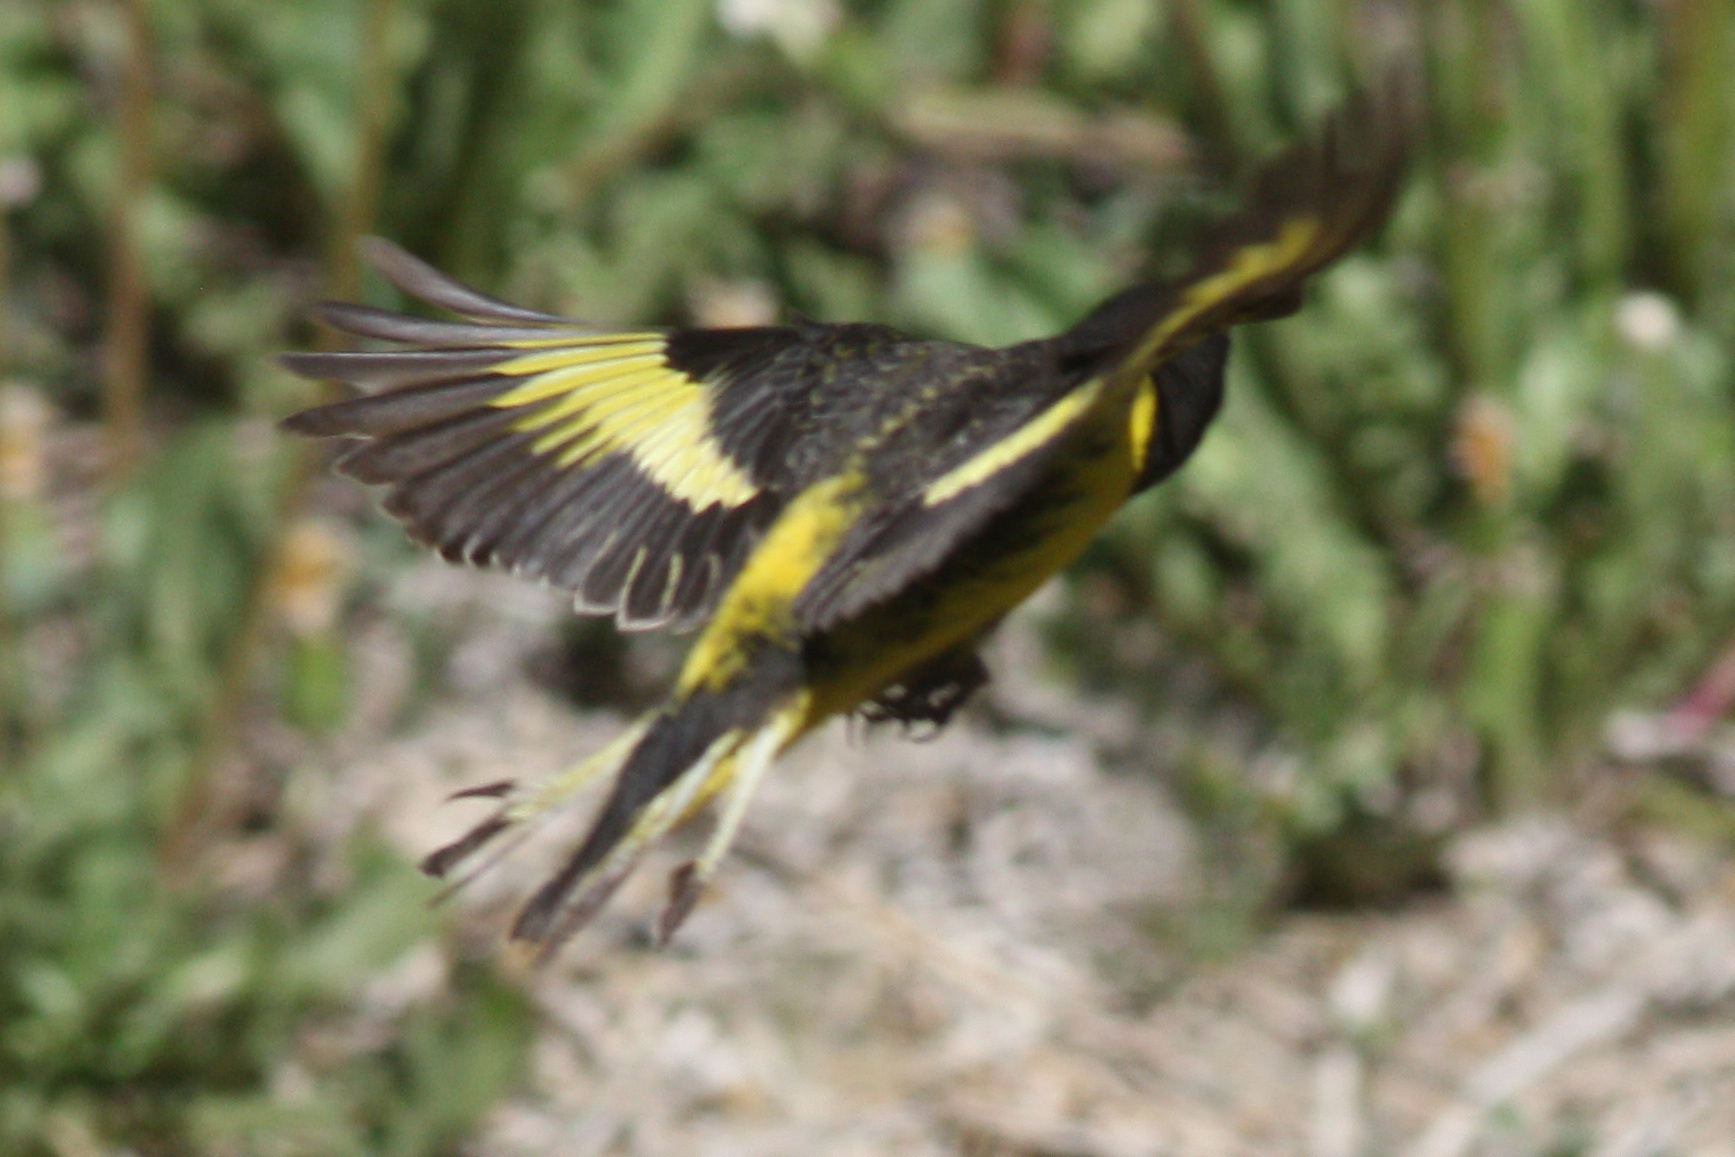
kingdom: Animalia
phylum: Chordata
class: Aves
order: Passeriformes
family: Fringillidae
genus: Spinus
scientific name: Spinus uropygialis
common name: Yellow-rumped siskin
